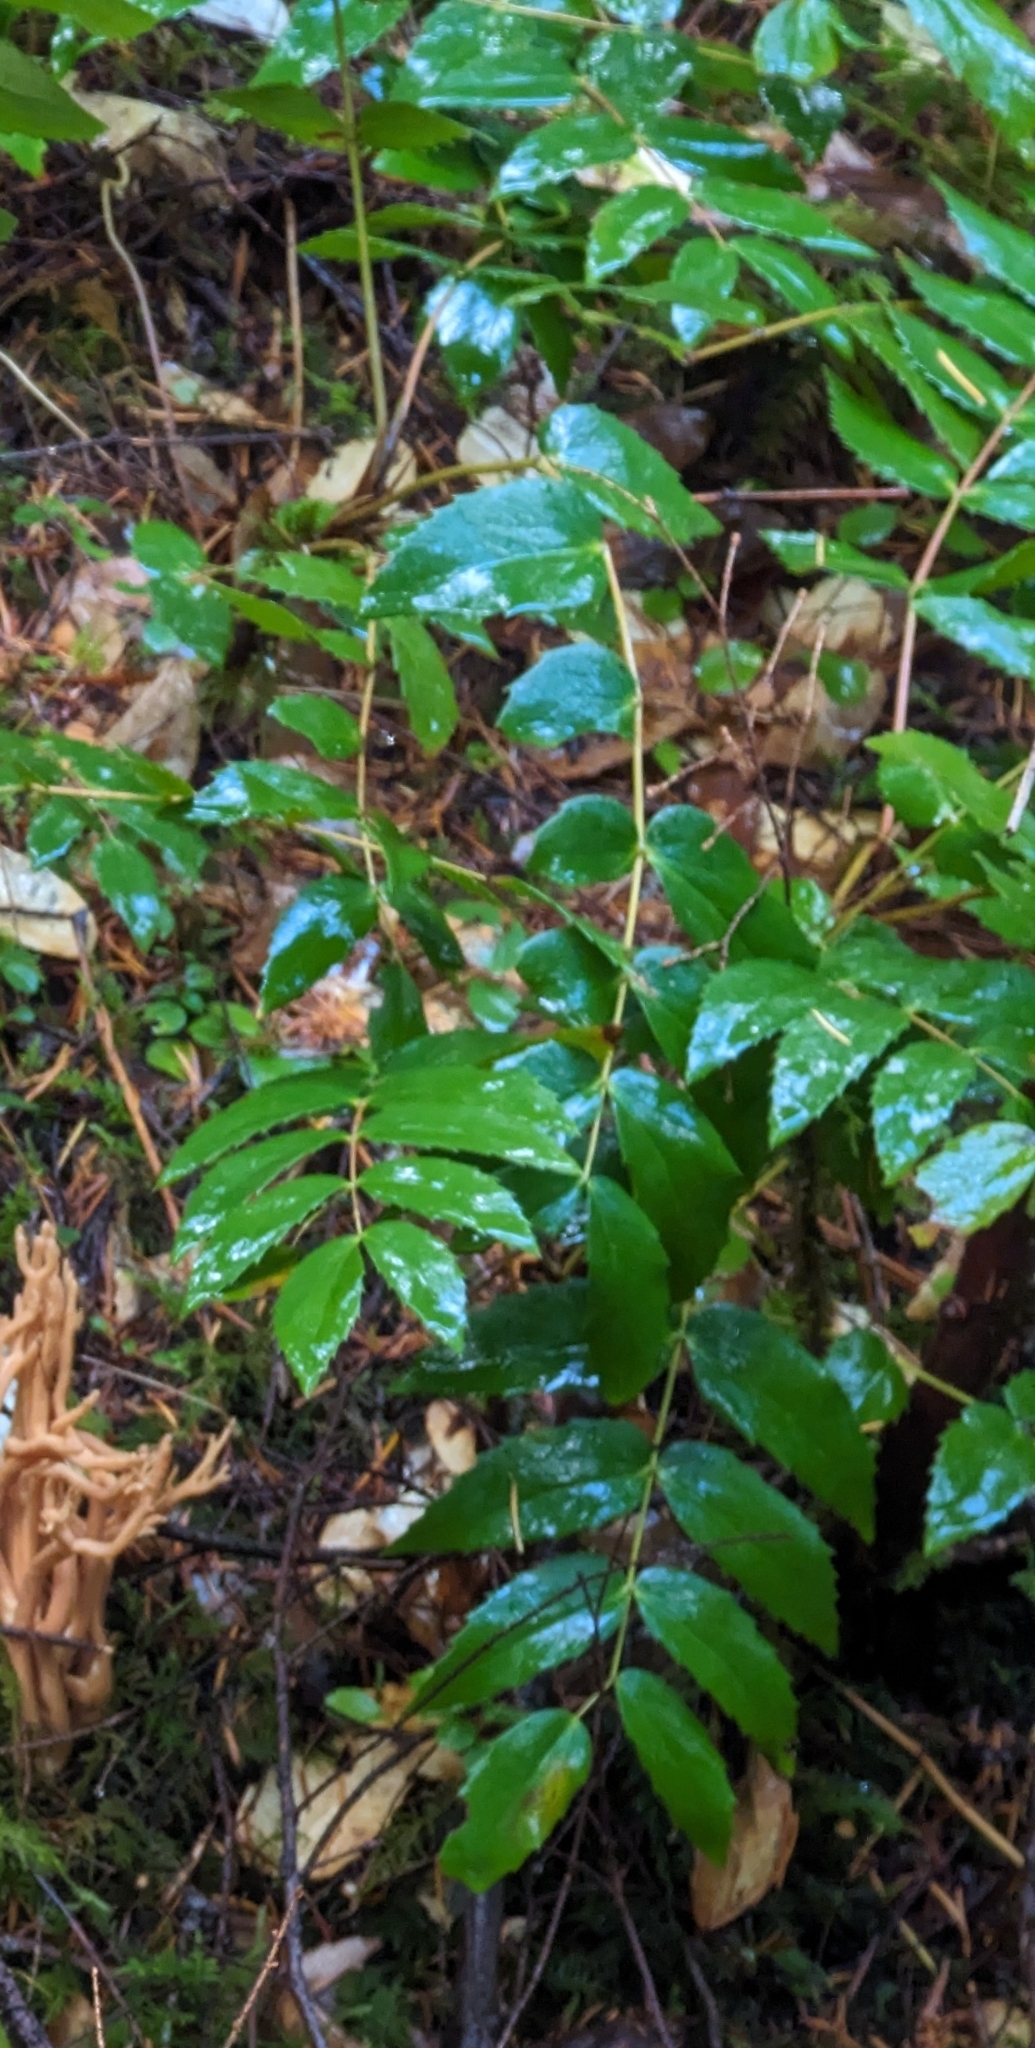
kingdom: Plantae
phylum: Tracheophyta
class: Magnoliopsida
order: Ranunculales
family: Berberidaceae
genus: Mahonia
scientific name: Mahonia nervosa
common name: Cascade oregon-grape
